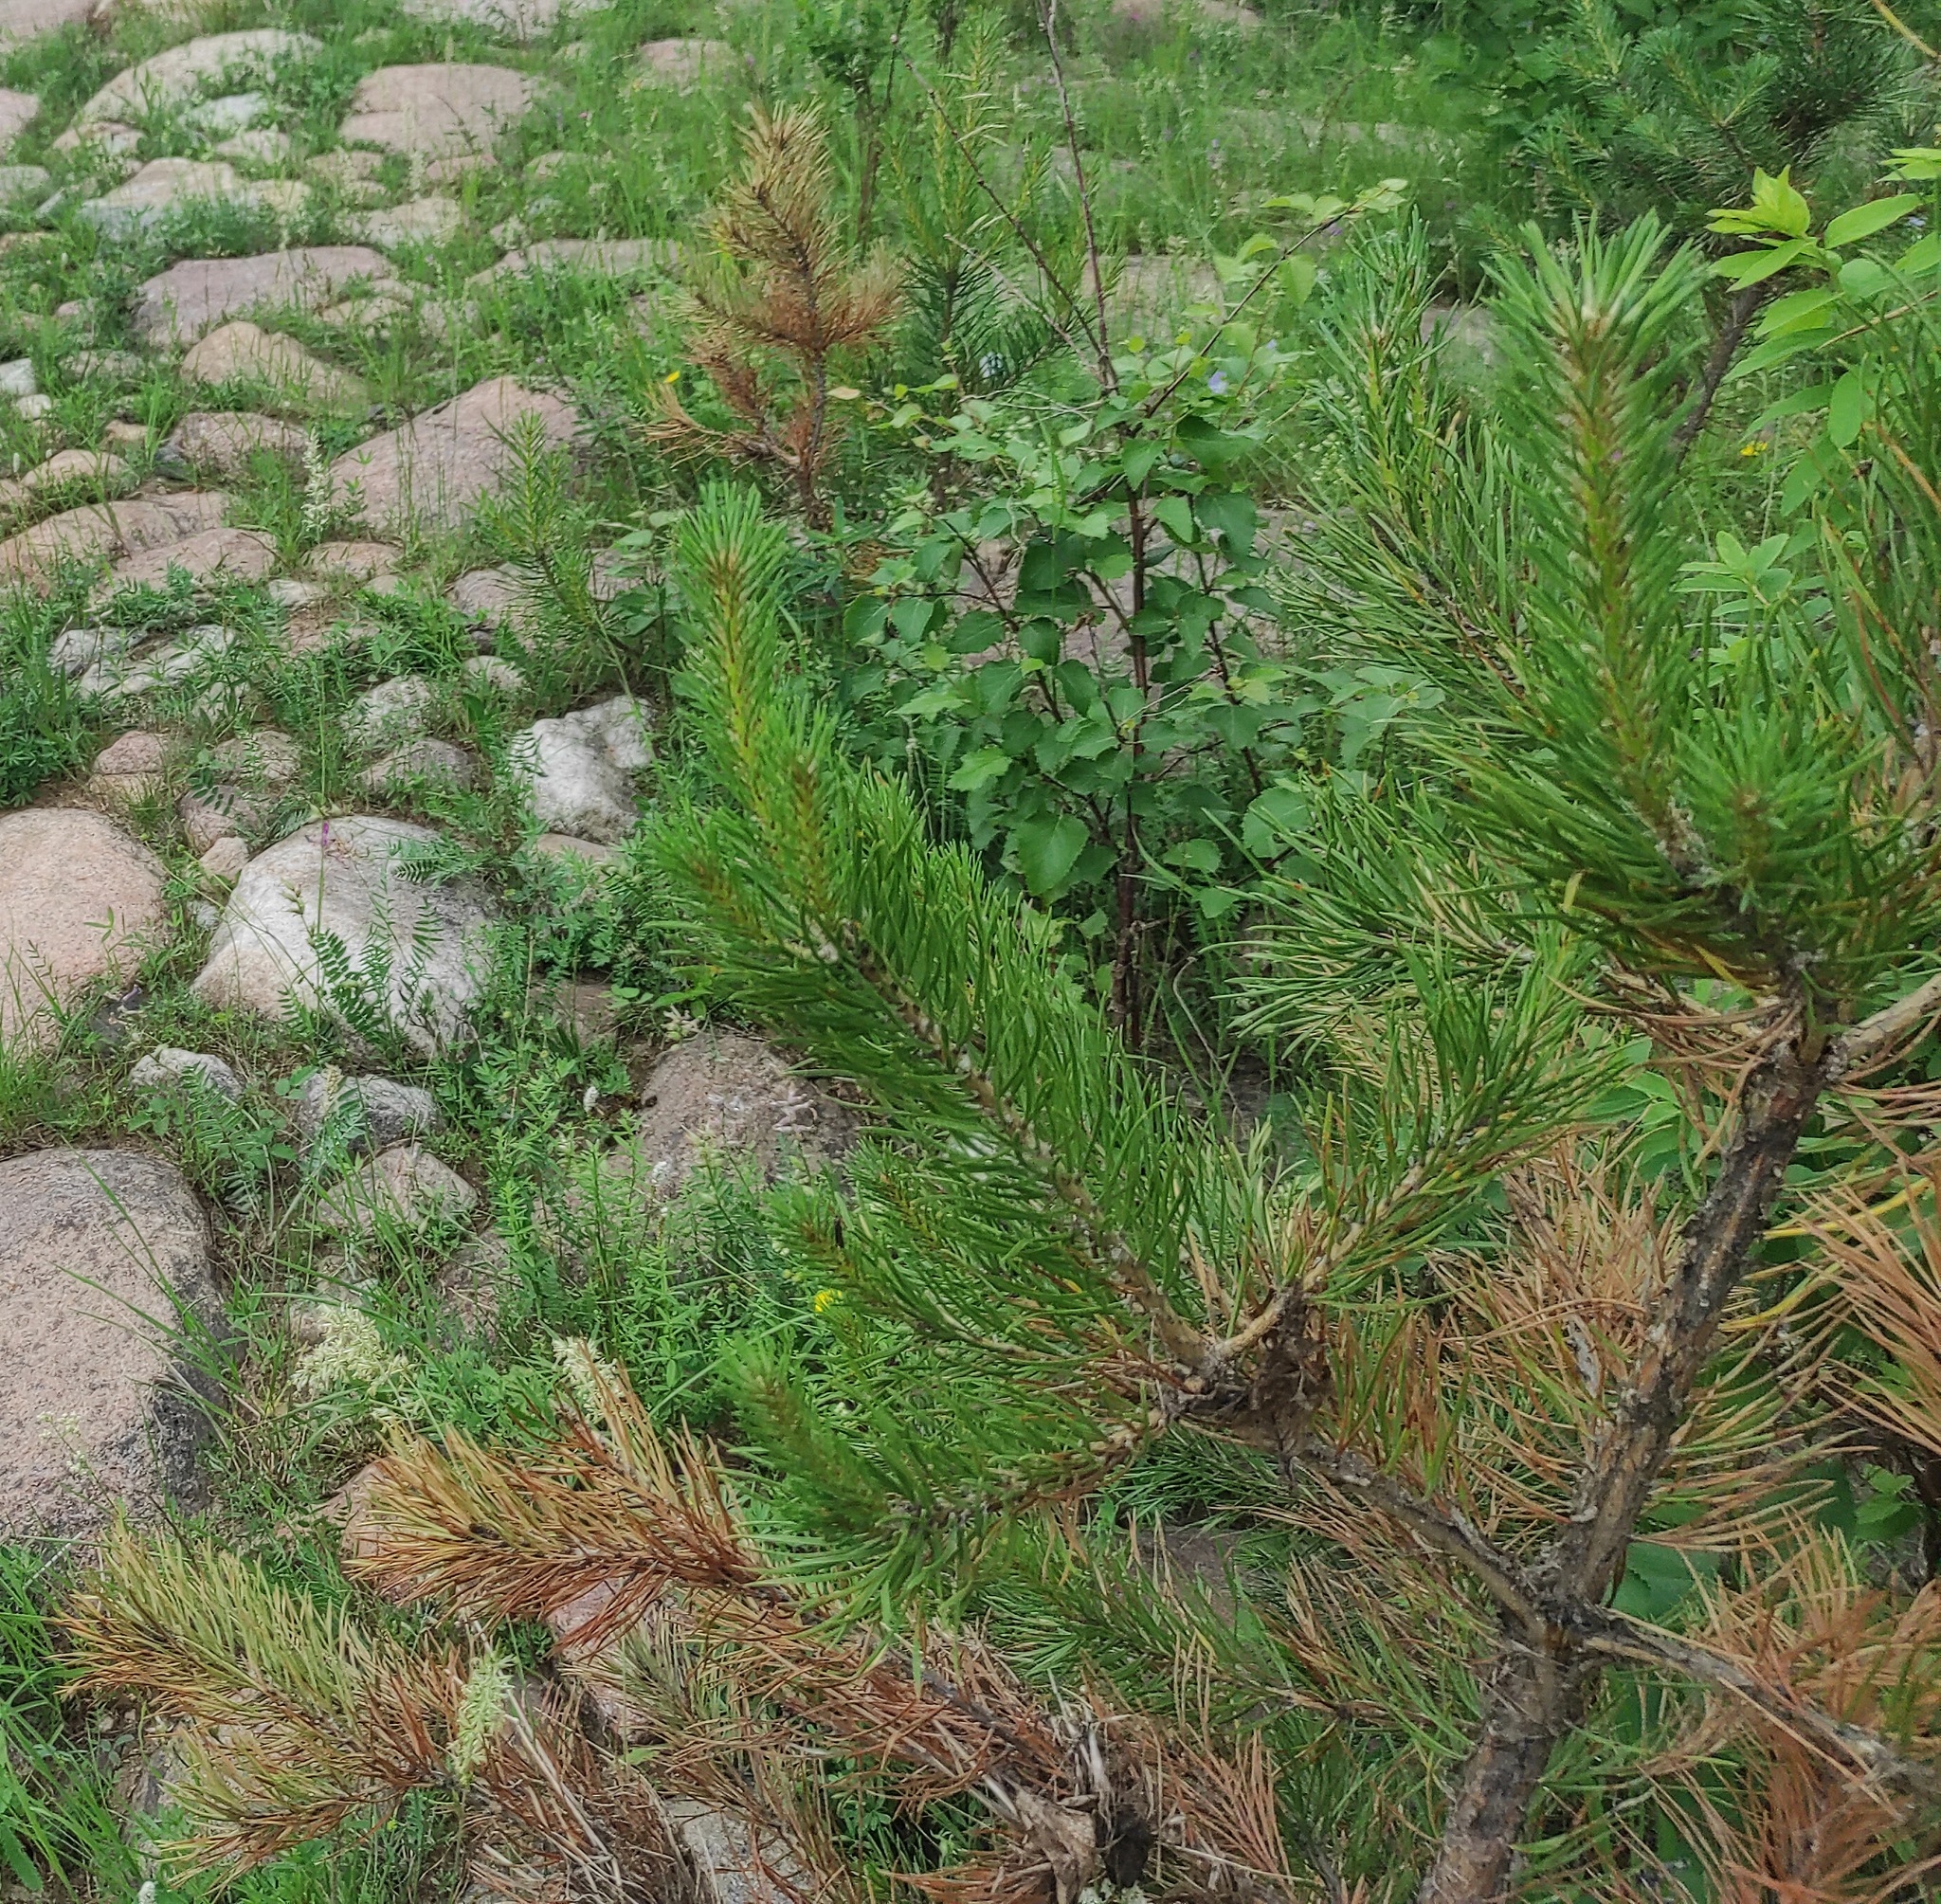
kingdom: Plantae
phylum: Tracheophyta
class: Pinopsida
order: Pinales
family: Pinaceae
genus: Pinus
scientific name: Pinus sylvestris
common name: Scots pine
